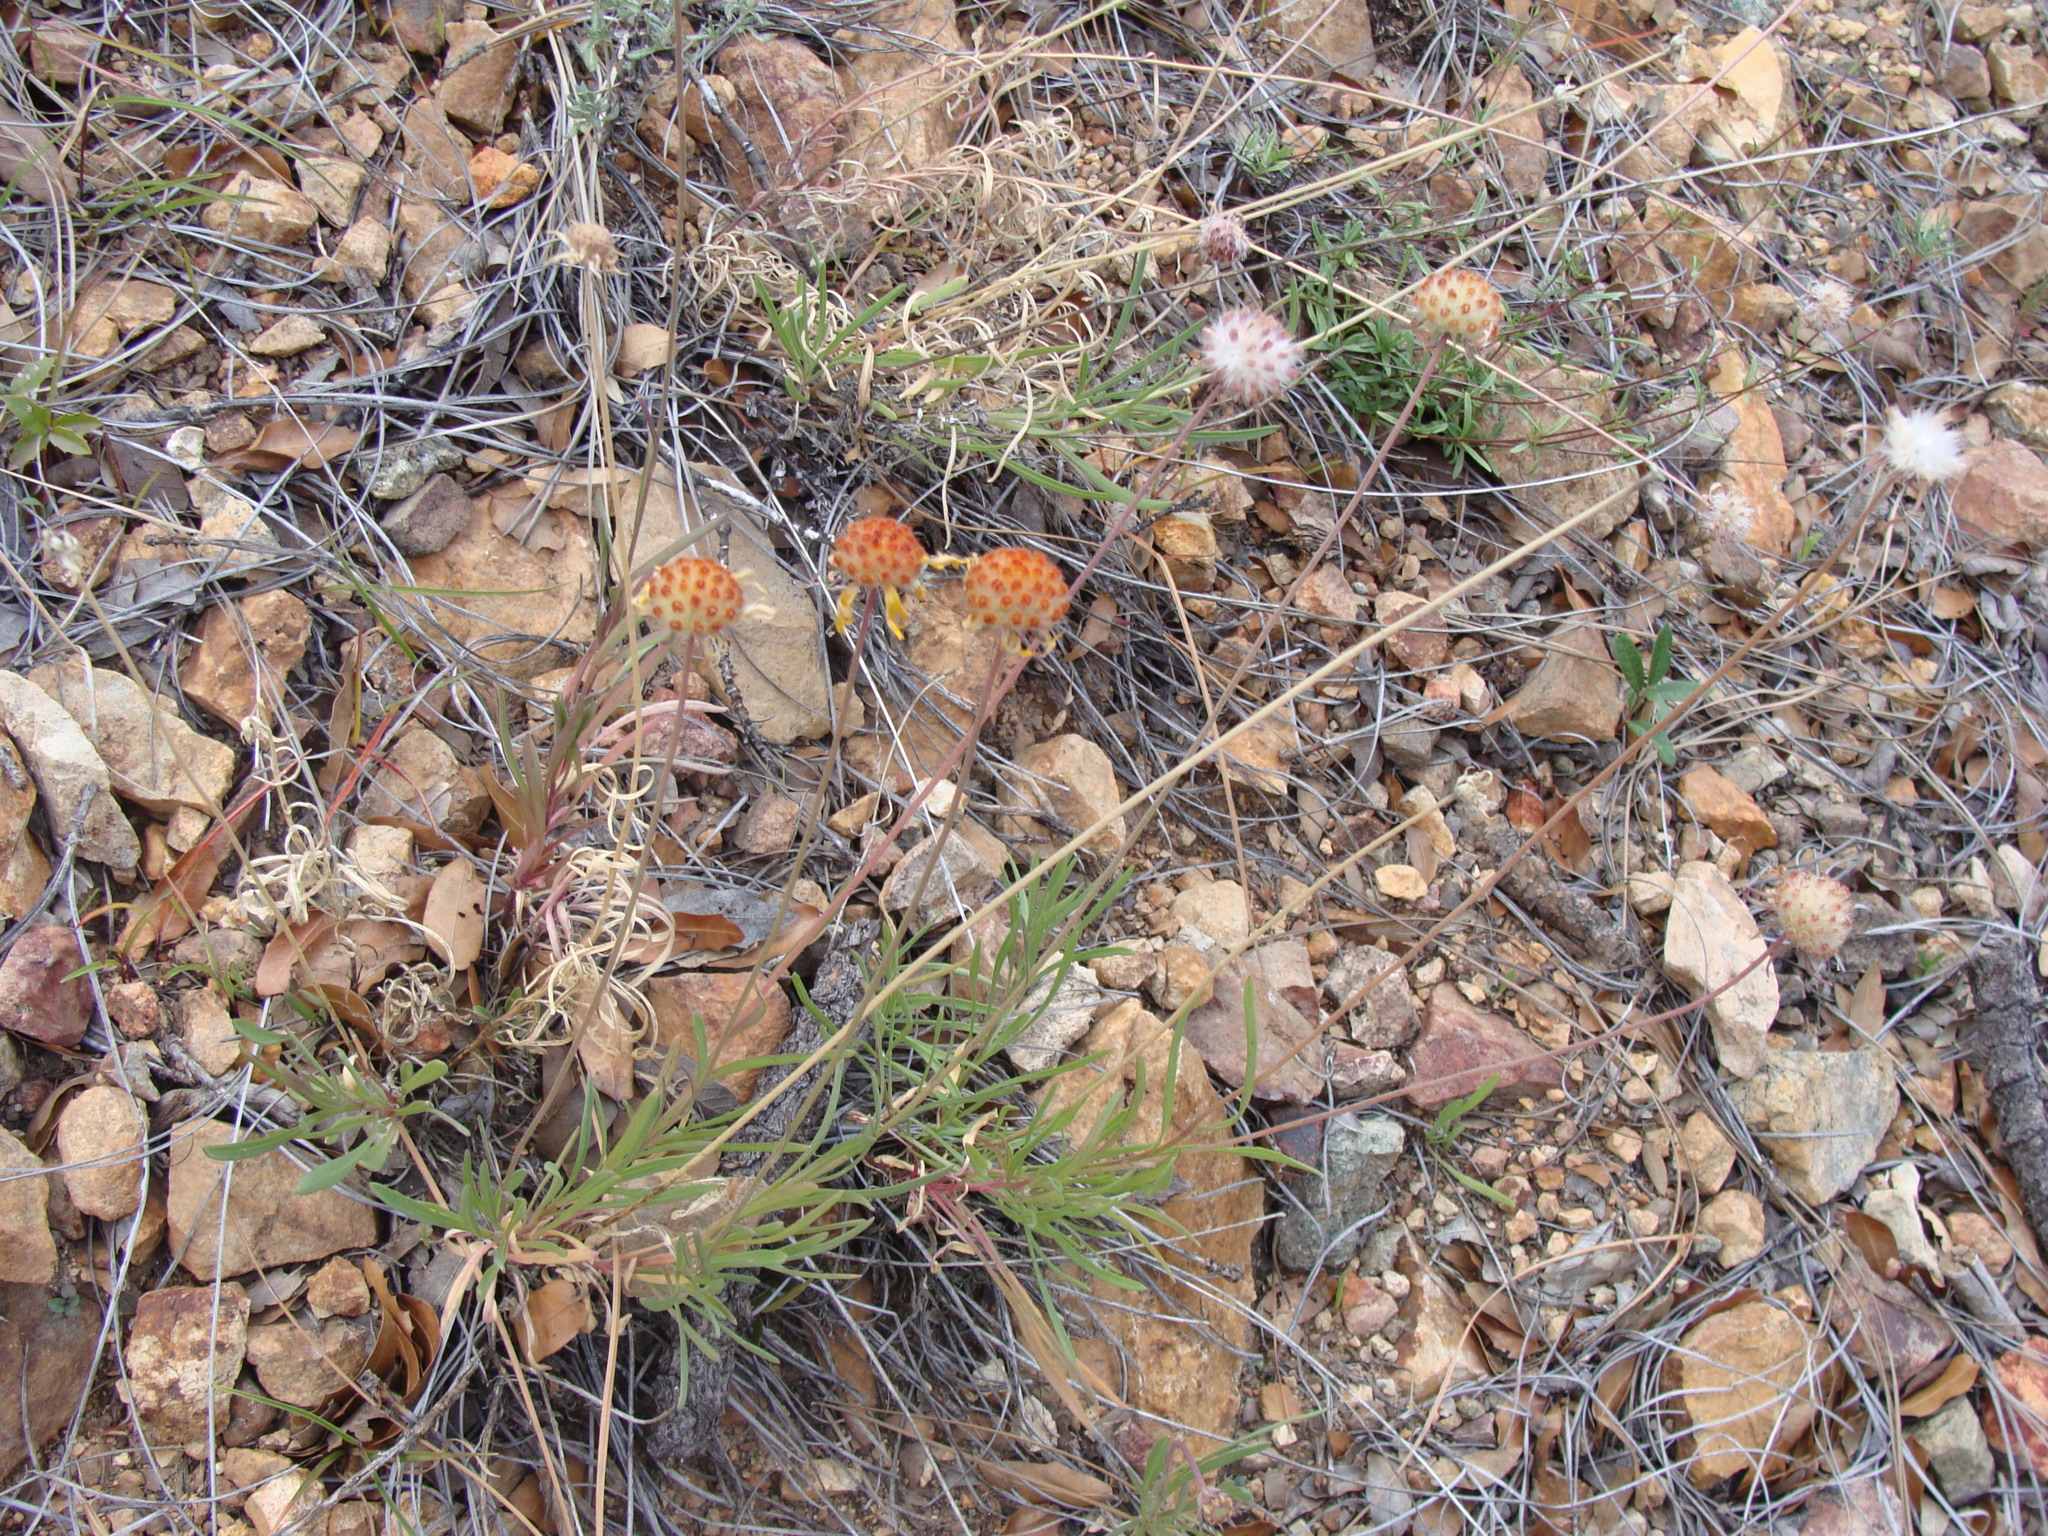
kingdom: Plantae
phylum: Tracheophyta
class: Magnoliopsida
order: Asterales
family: Asteraceae
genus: Gaillardia
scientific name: Gaillardia pinnatifida
